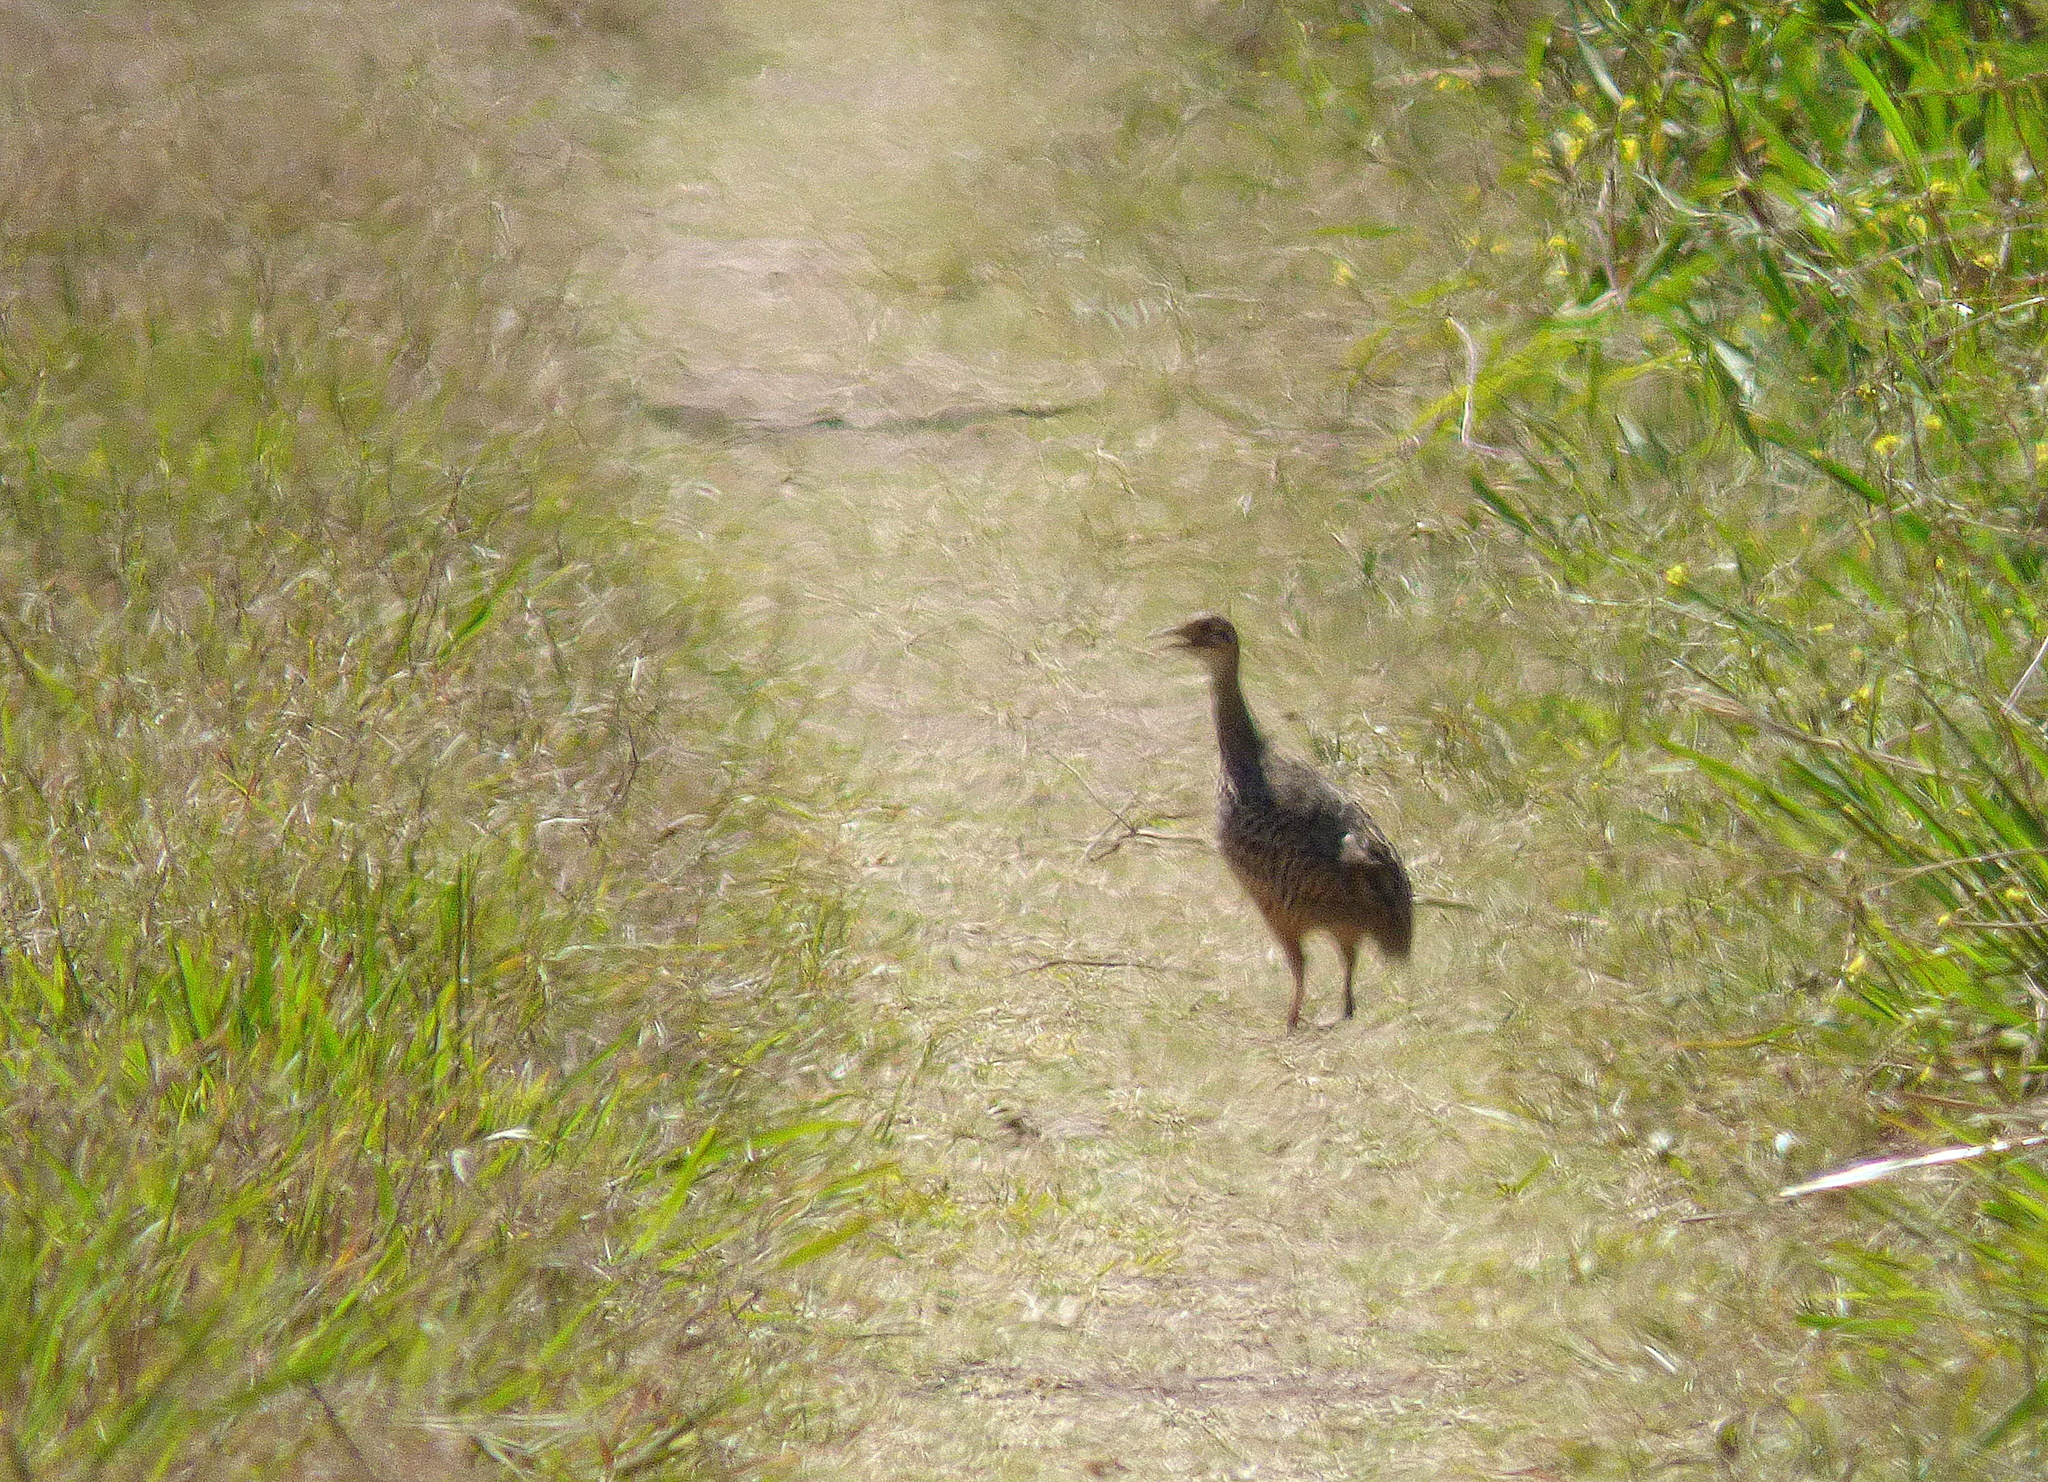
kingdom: Animalia
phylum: Chordata
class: Aves
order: Tinamiformes
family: Tinamidae
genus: Rhynchotus
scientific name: Rhynchotus rufescens
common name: Red-winged tinamou
